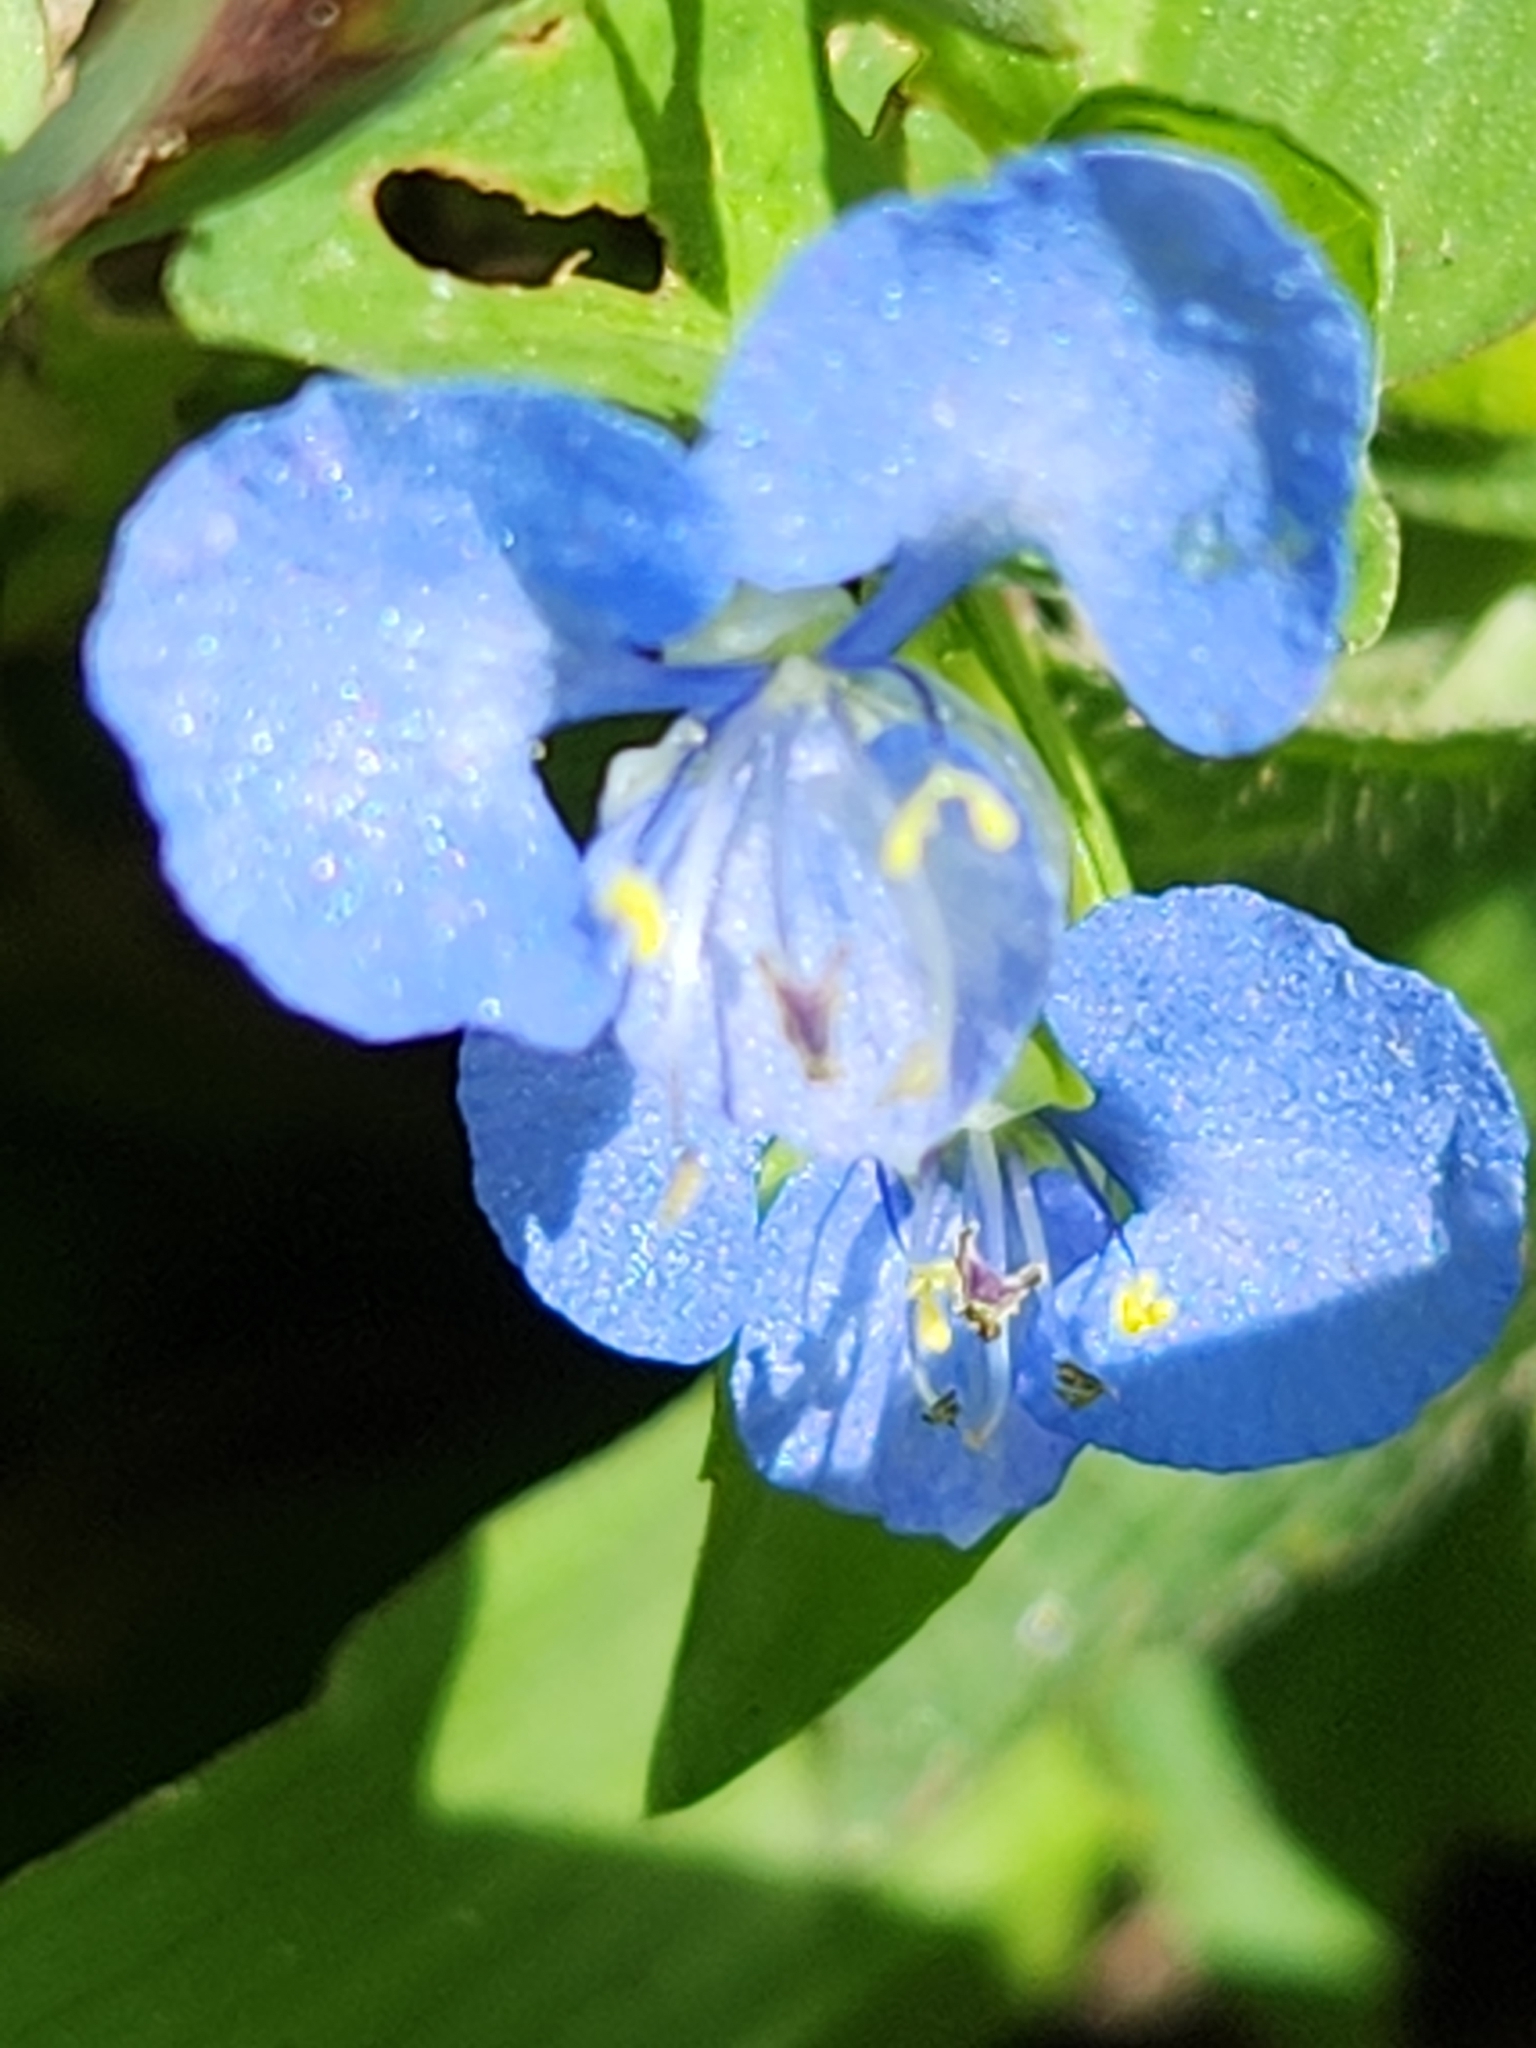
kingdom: Plantae
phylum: Tracheophyta
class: Liliopsida
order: Commelinales
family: Commelinaceae
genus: Commelina
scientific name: Commelina diffusa
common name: Climbing dayflower
